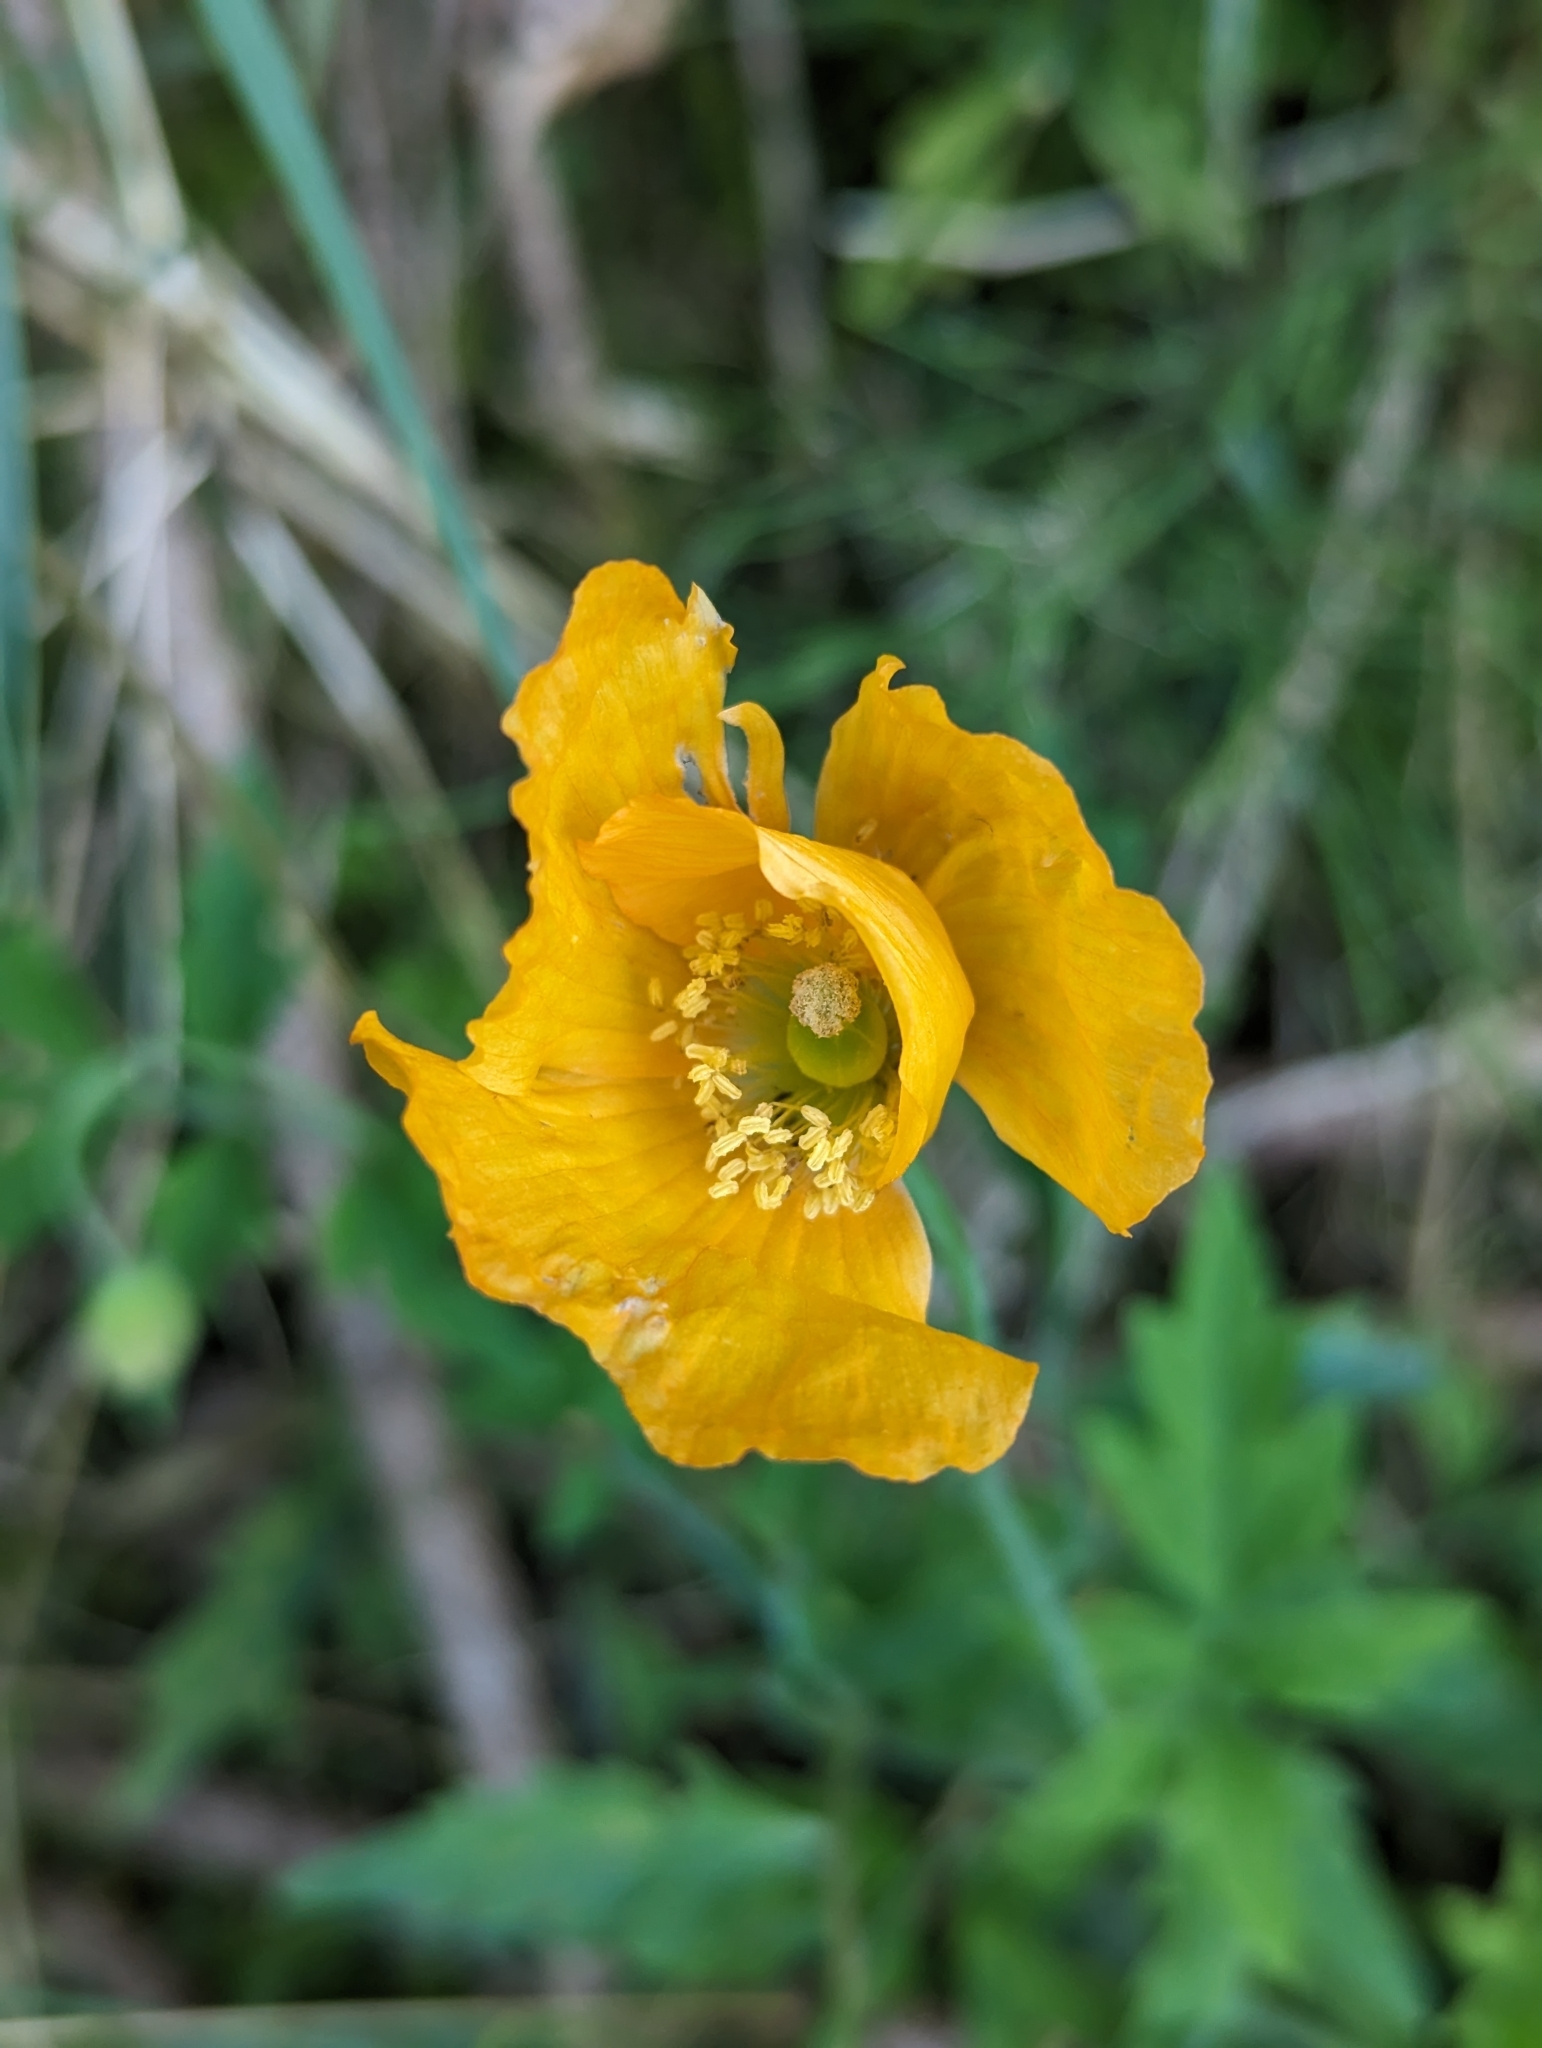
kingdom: Plantae
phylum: Tracheophyta
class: Magnoliopsida
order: Ranunculales
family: Papaveraceae
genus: Papaver
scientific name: Papaver cambricum
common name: Poppy
